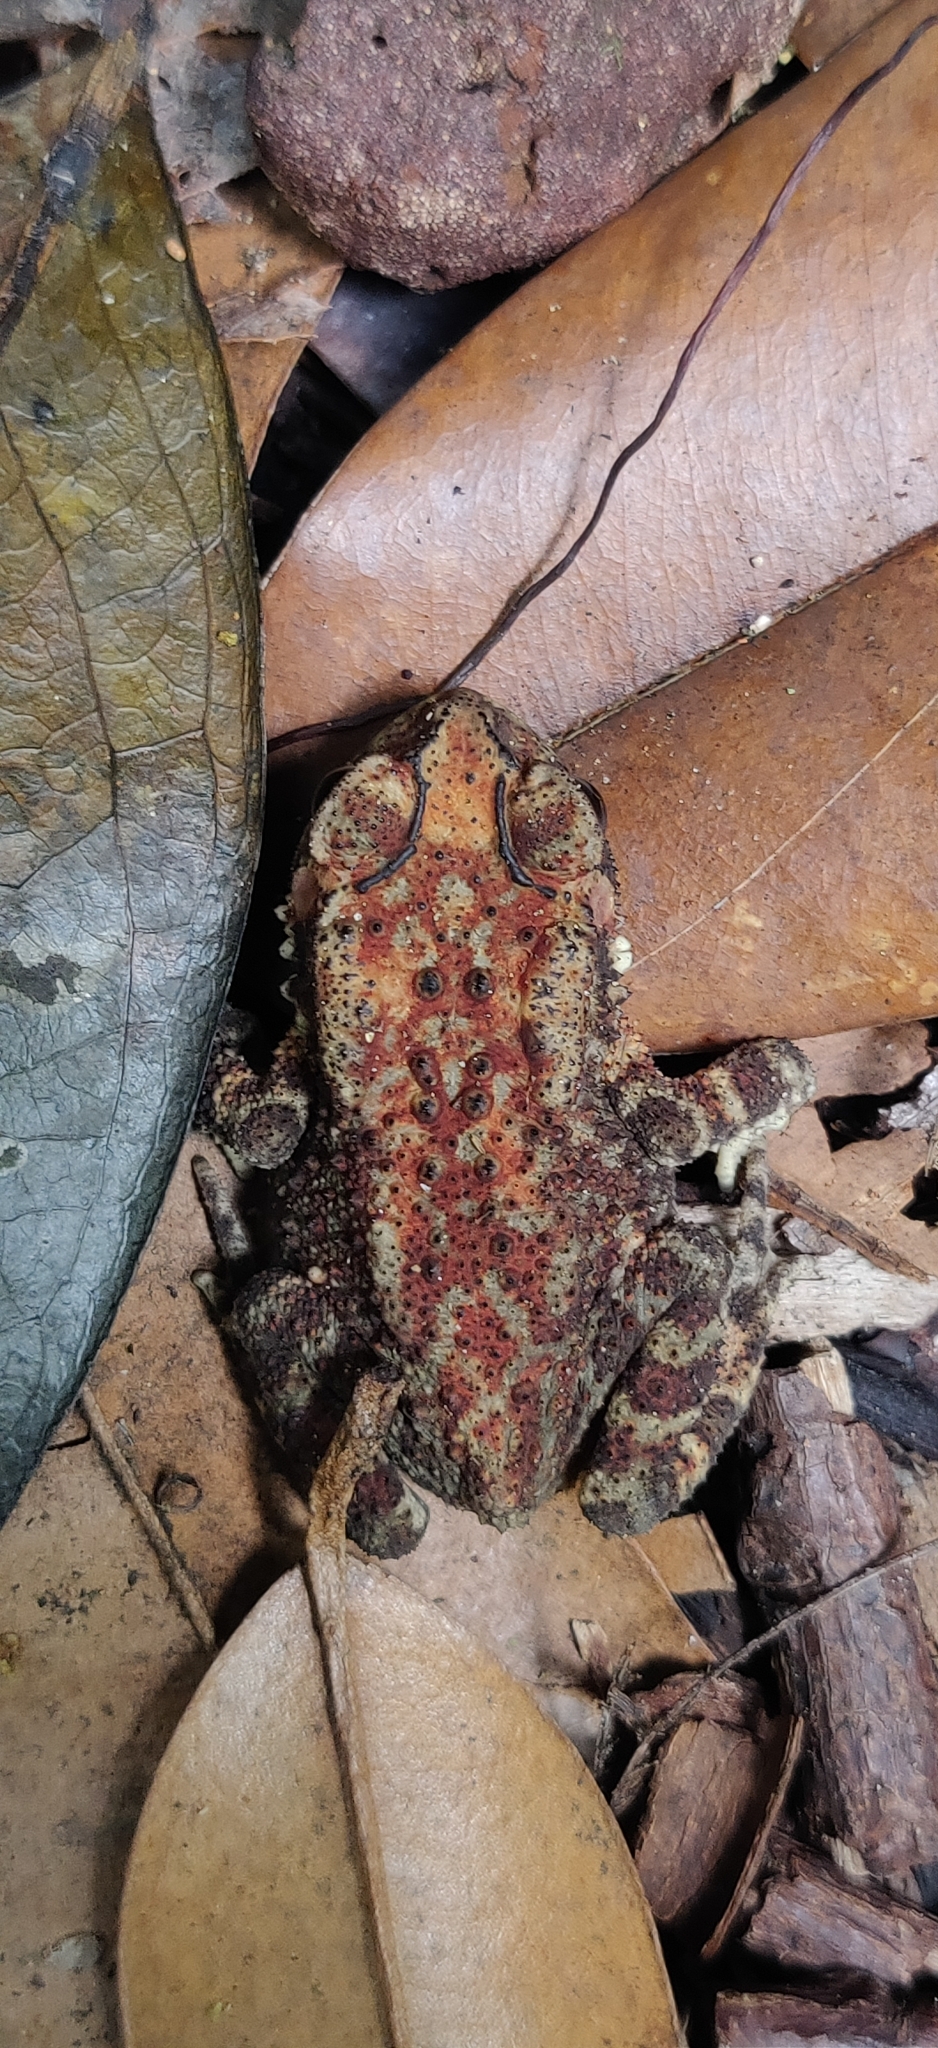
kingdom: Animalia
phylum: Chordata
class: Amphibia
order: Anura
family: Bufonidae
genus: Duttaphrynus
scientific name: Duttaphrynus melanostictus
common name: Common sunda toad
